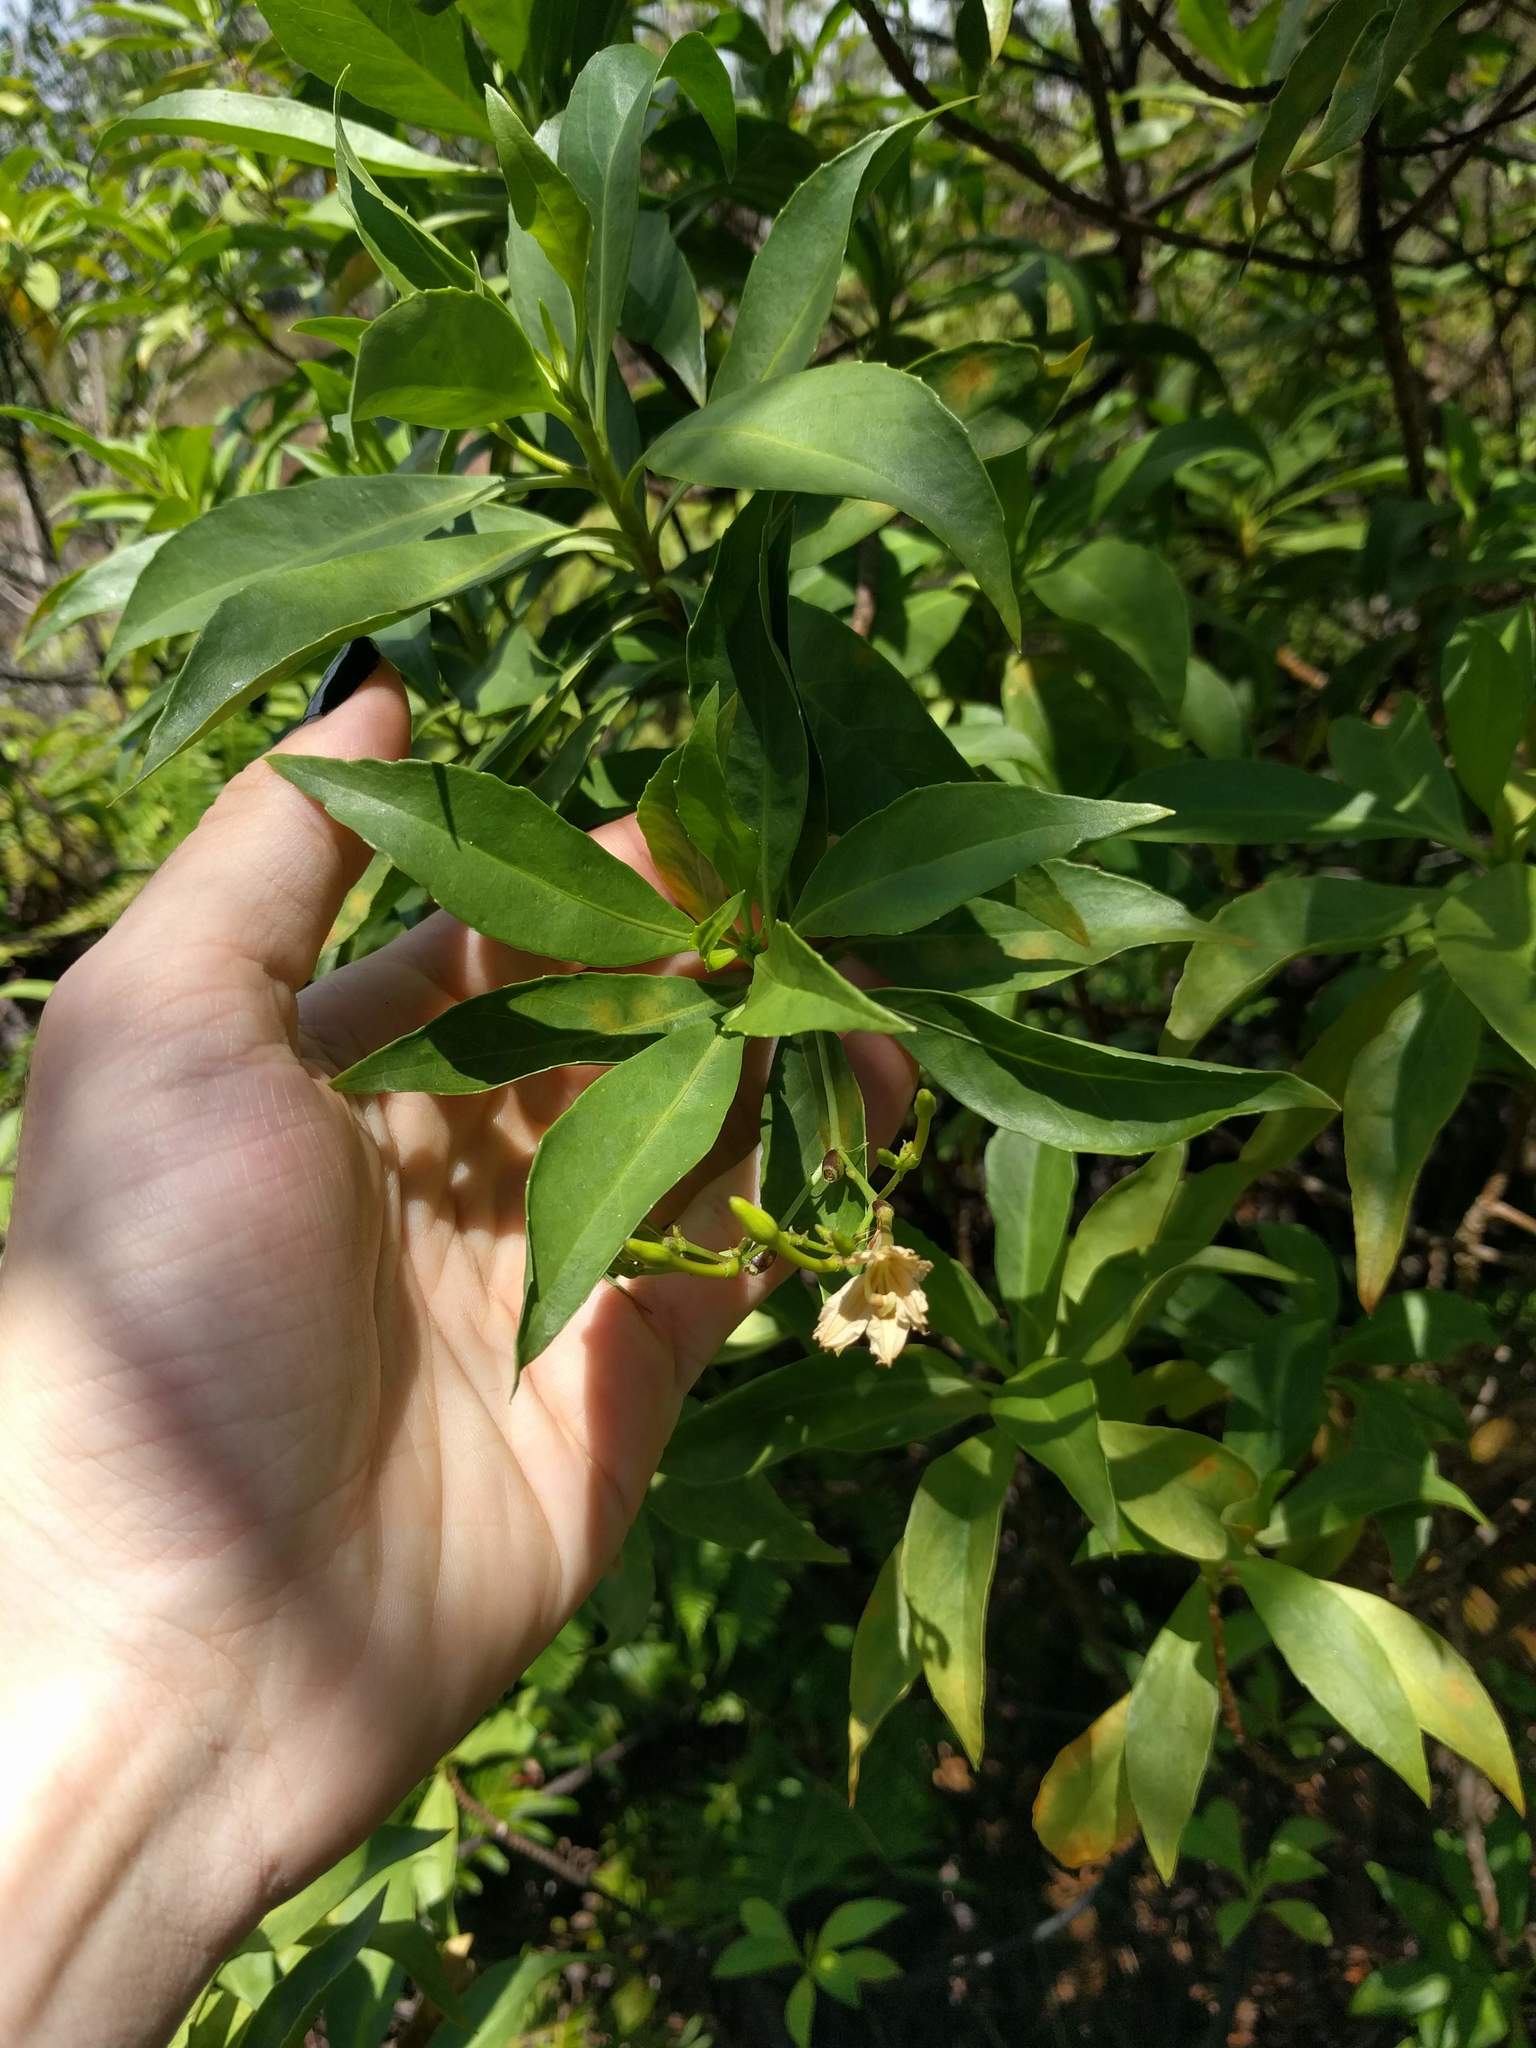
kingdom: Plantae
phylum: Tracheophyta
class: Magnoliopsida
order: Asterales
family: Goodeniaceae
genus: Scaevola
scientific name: Scaevola gaudichaudiana
